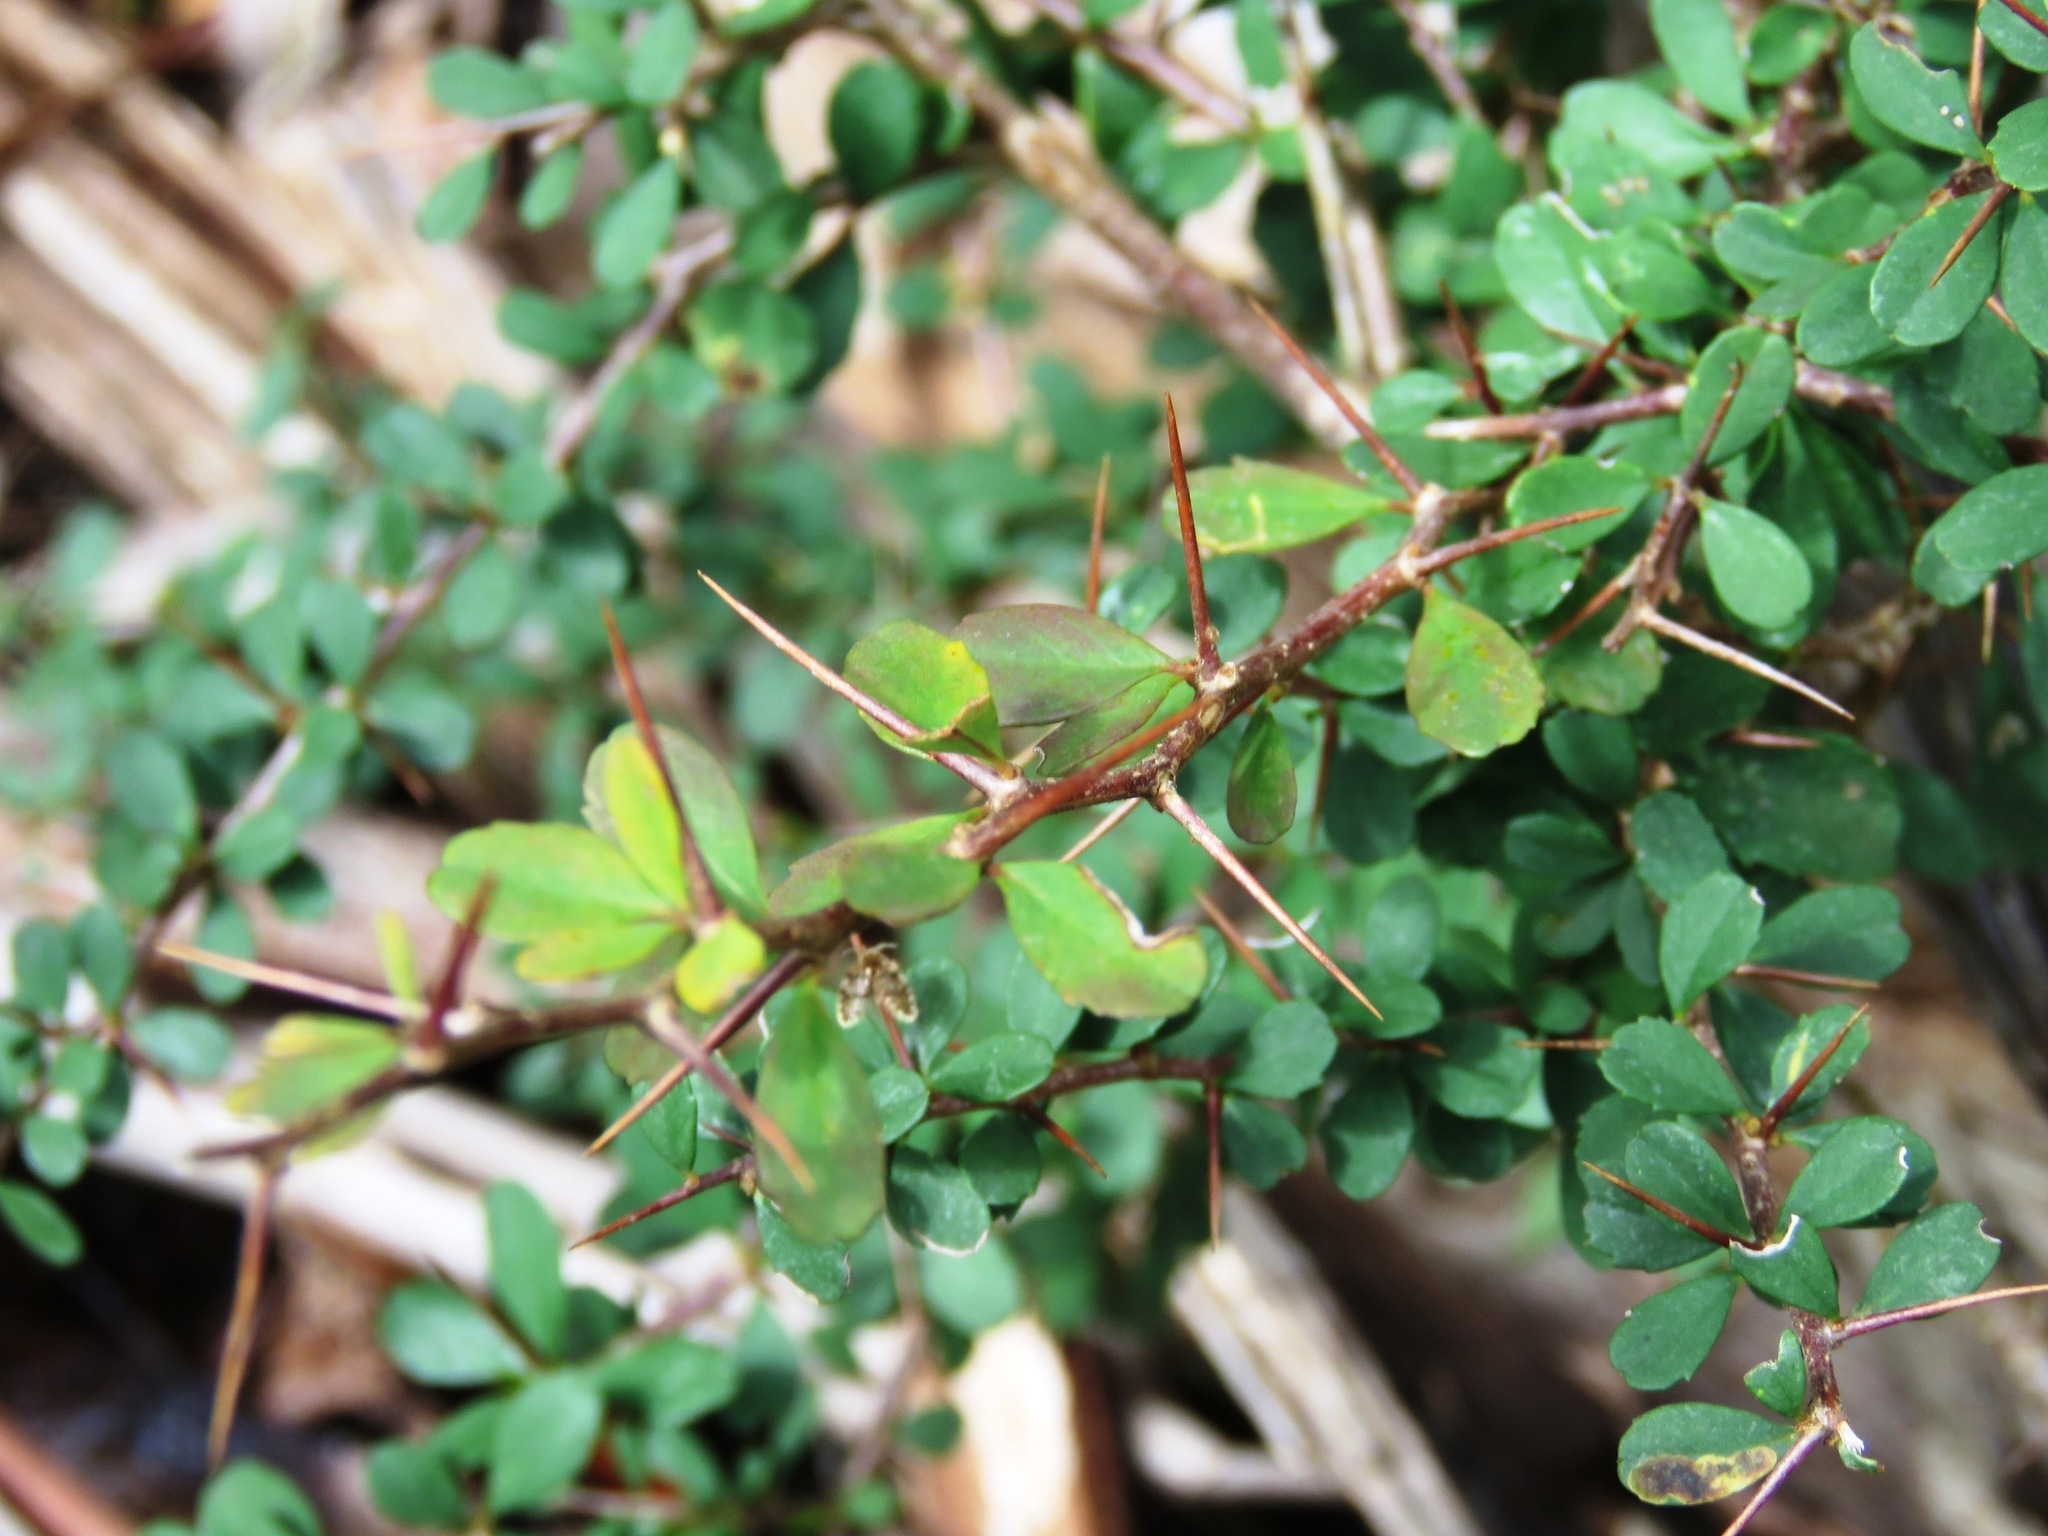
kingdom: Plantae
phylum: Tracheophyta
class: Magnoliopsida
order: Apiales
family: Pittosporaceae
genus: Bursaria
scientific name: Bursaria spinosa
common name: Australian blackthorn
